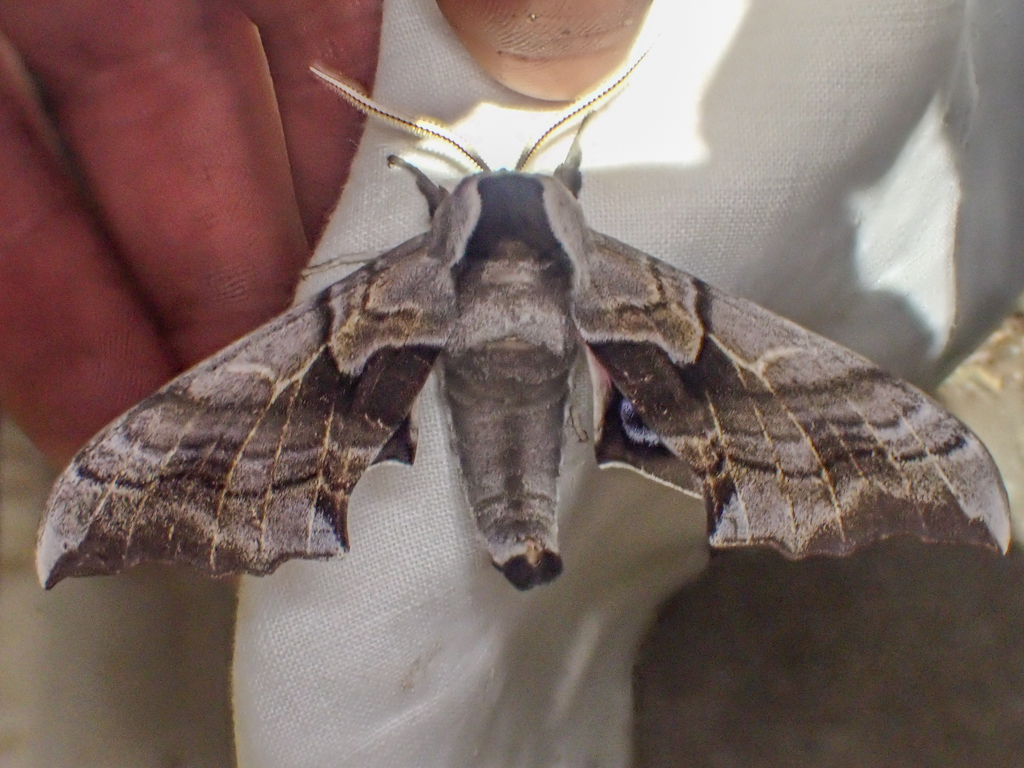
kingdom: Animalia
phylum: Arthropoda
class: Insecta
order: Lepidoptera
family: Sphingidae
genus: Smerinthus
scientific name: Smerinthus cerisyi
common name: Cerisy's sphinx moth
